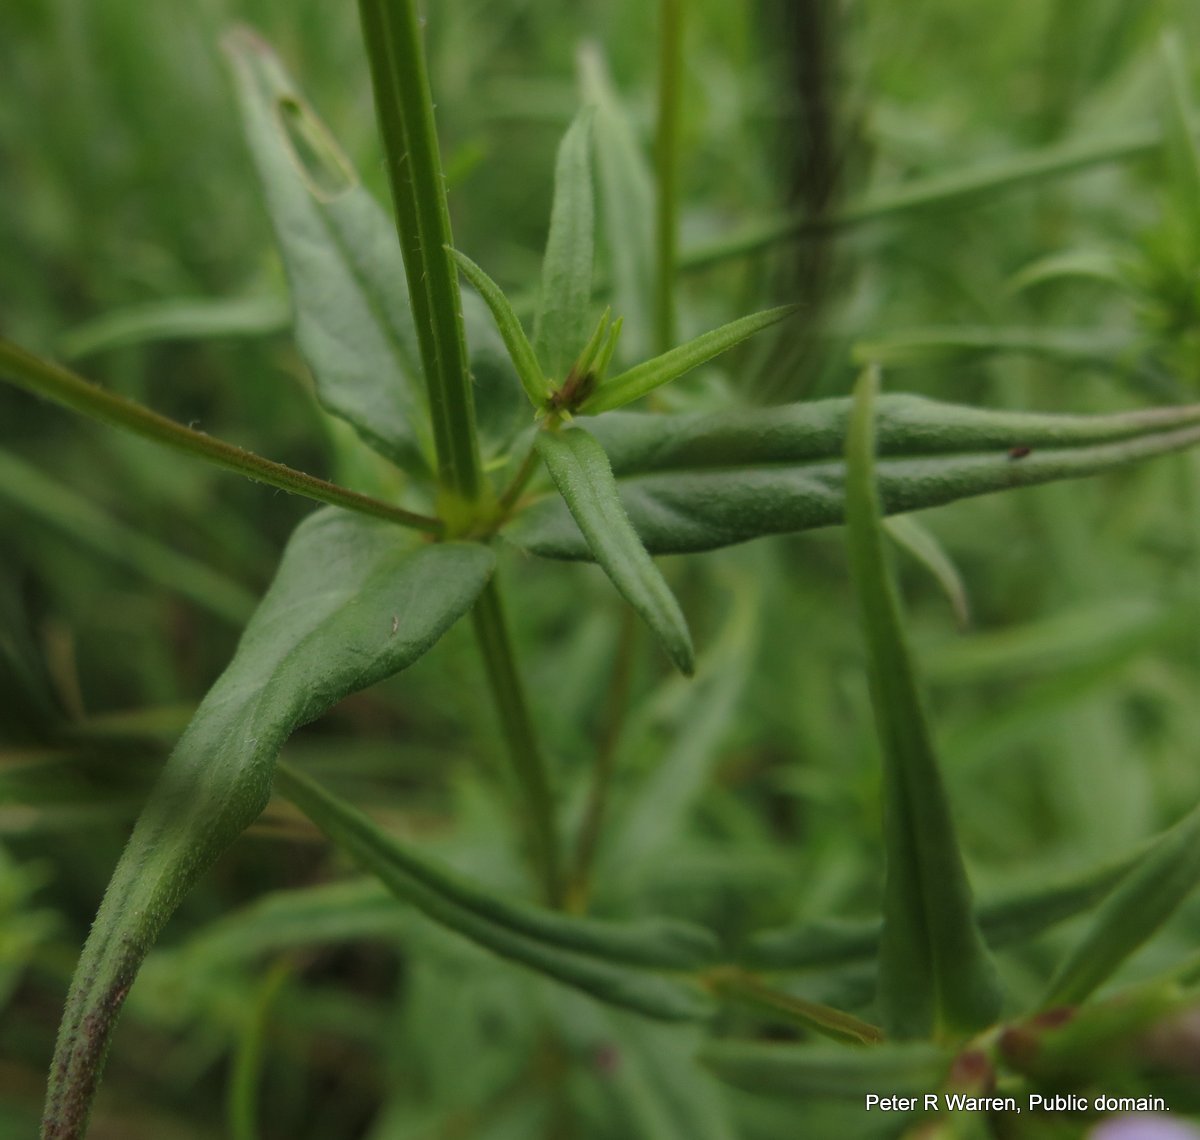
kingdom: Plantae
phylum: Tracheophyta
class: Magnoliopsida
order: Gentianales
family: Rubiaceae
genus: Conostomium
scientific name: Conostomium natalense
